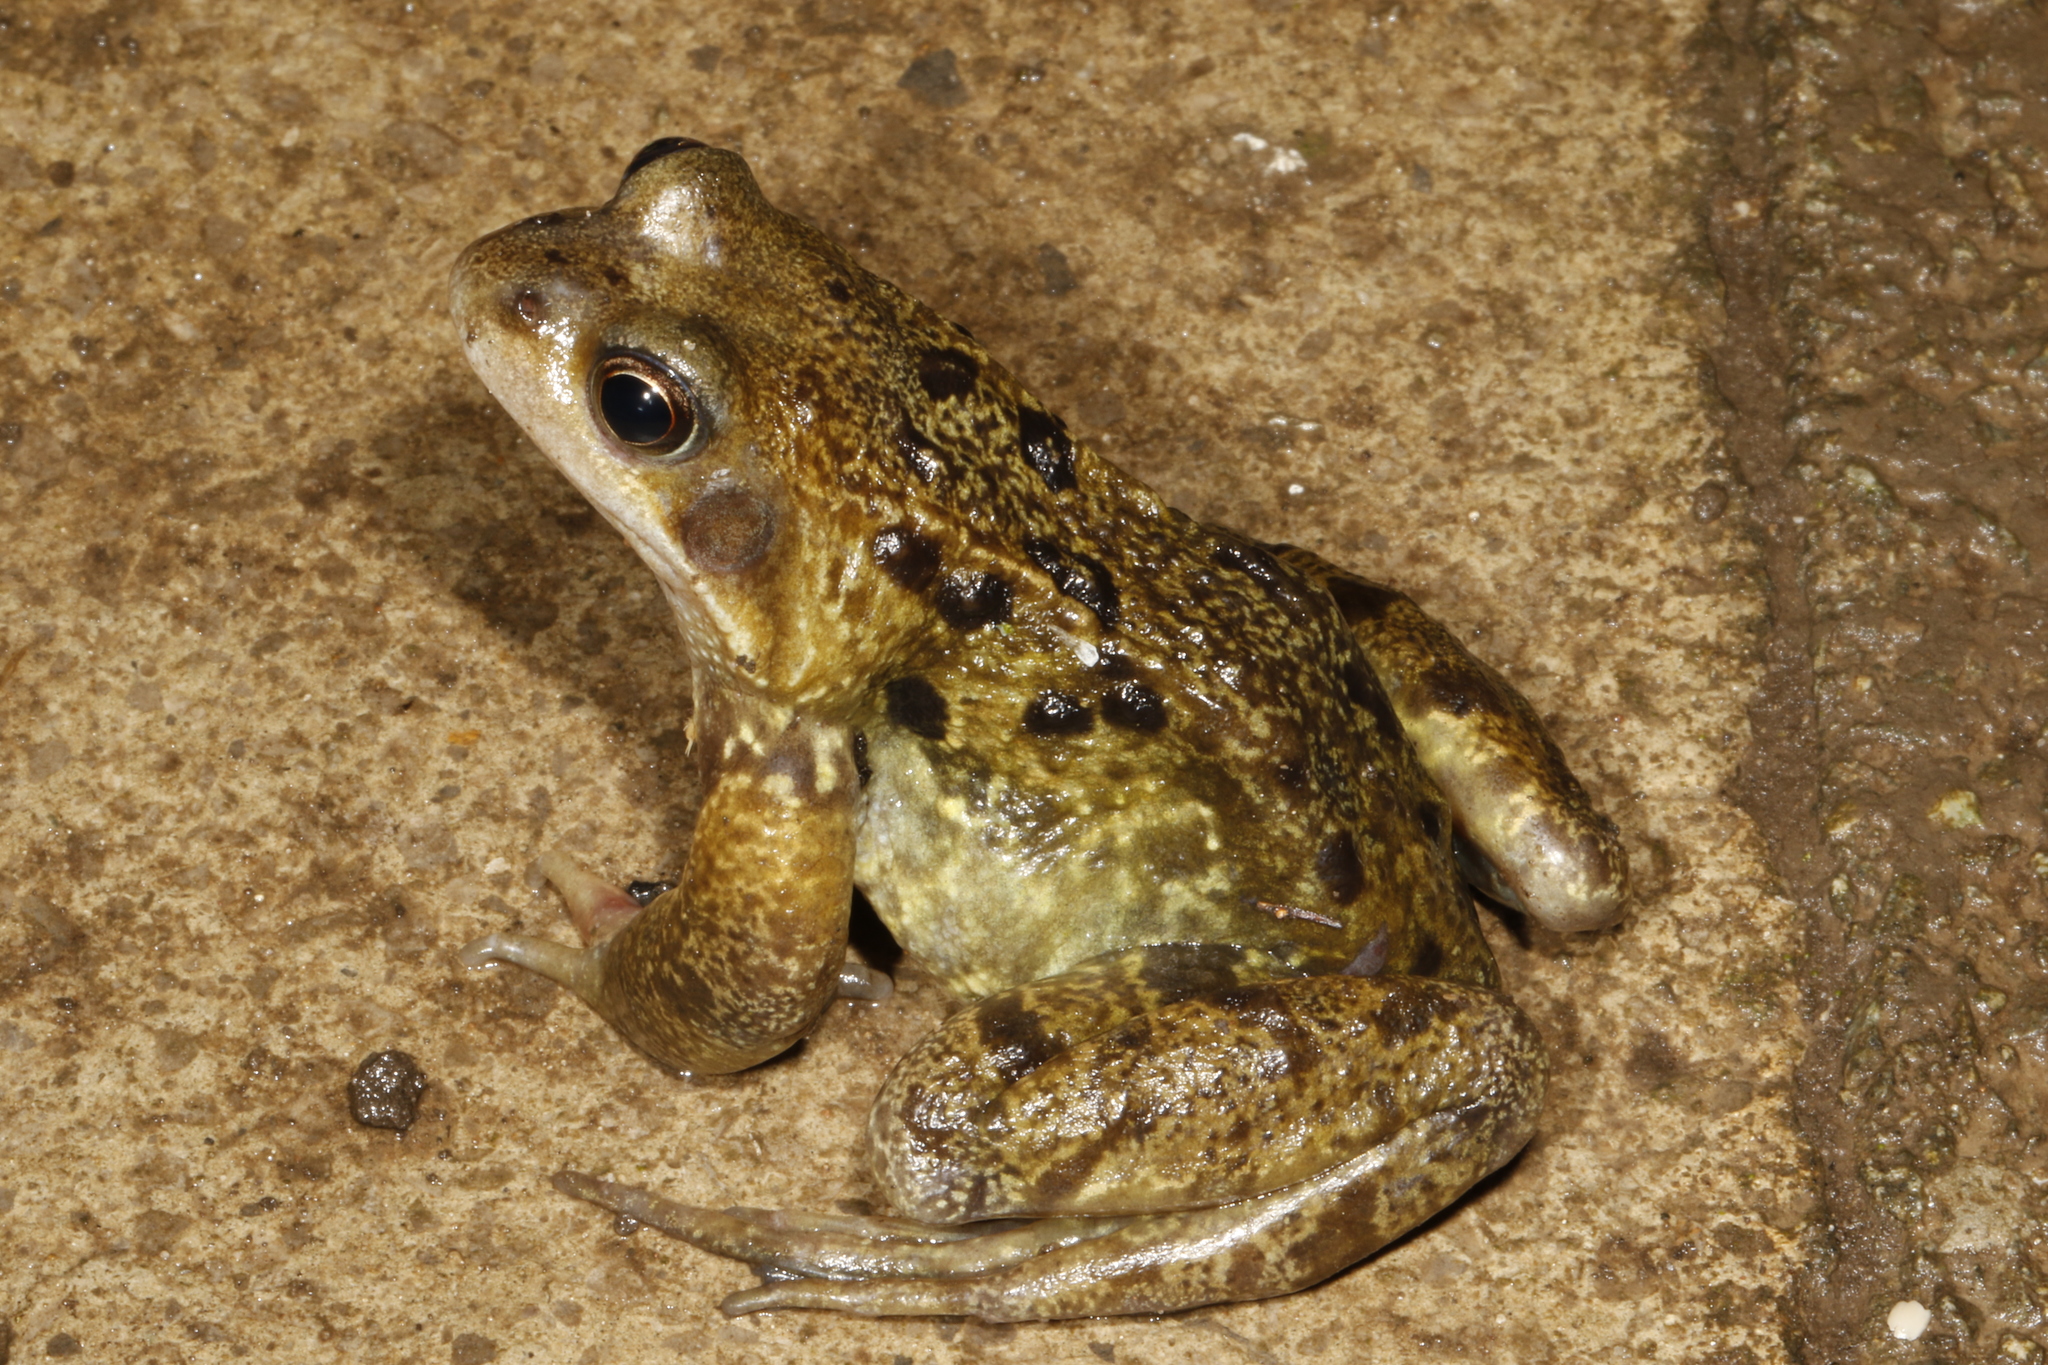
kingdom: Animalia
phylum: Chordata
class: Amphibia
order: Anura
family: Ranidae
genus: Rana
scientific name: Rana temporaria
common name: Common frog
